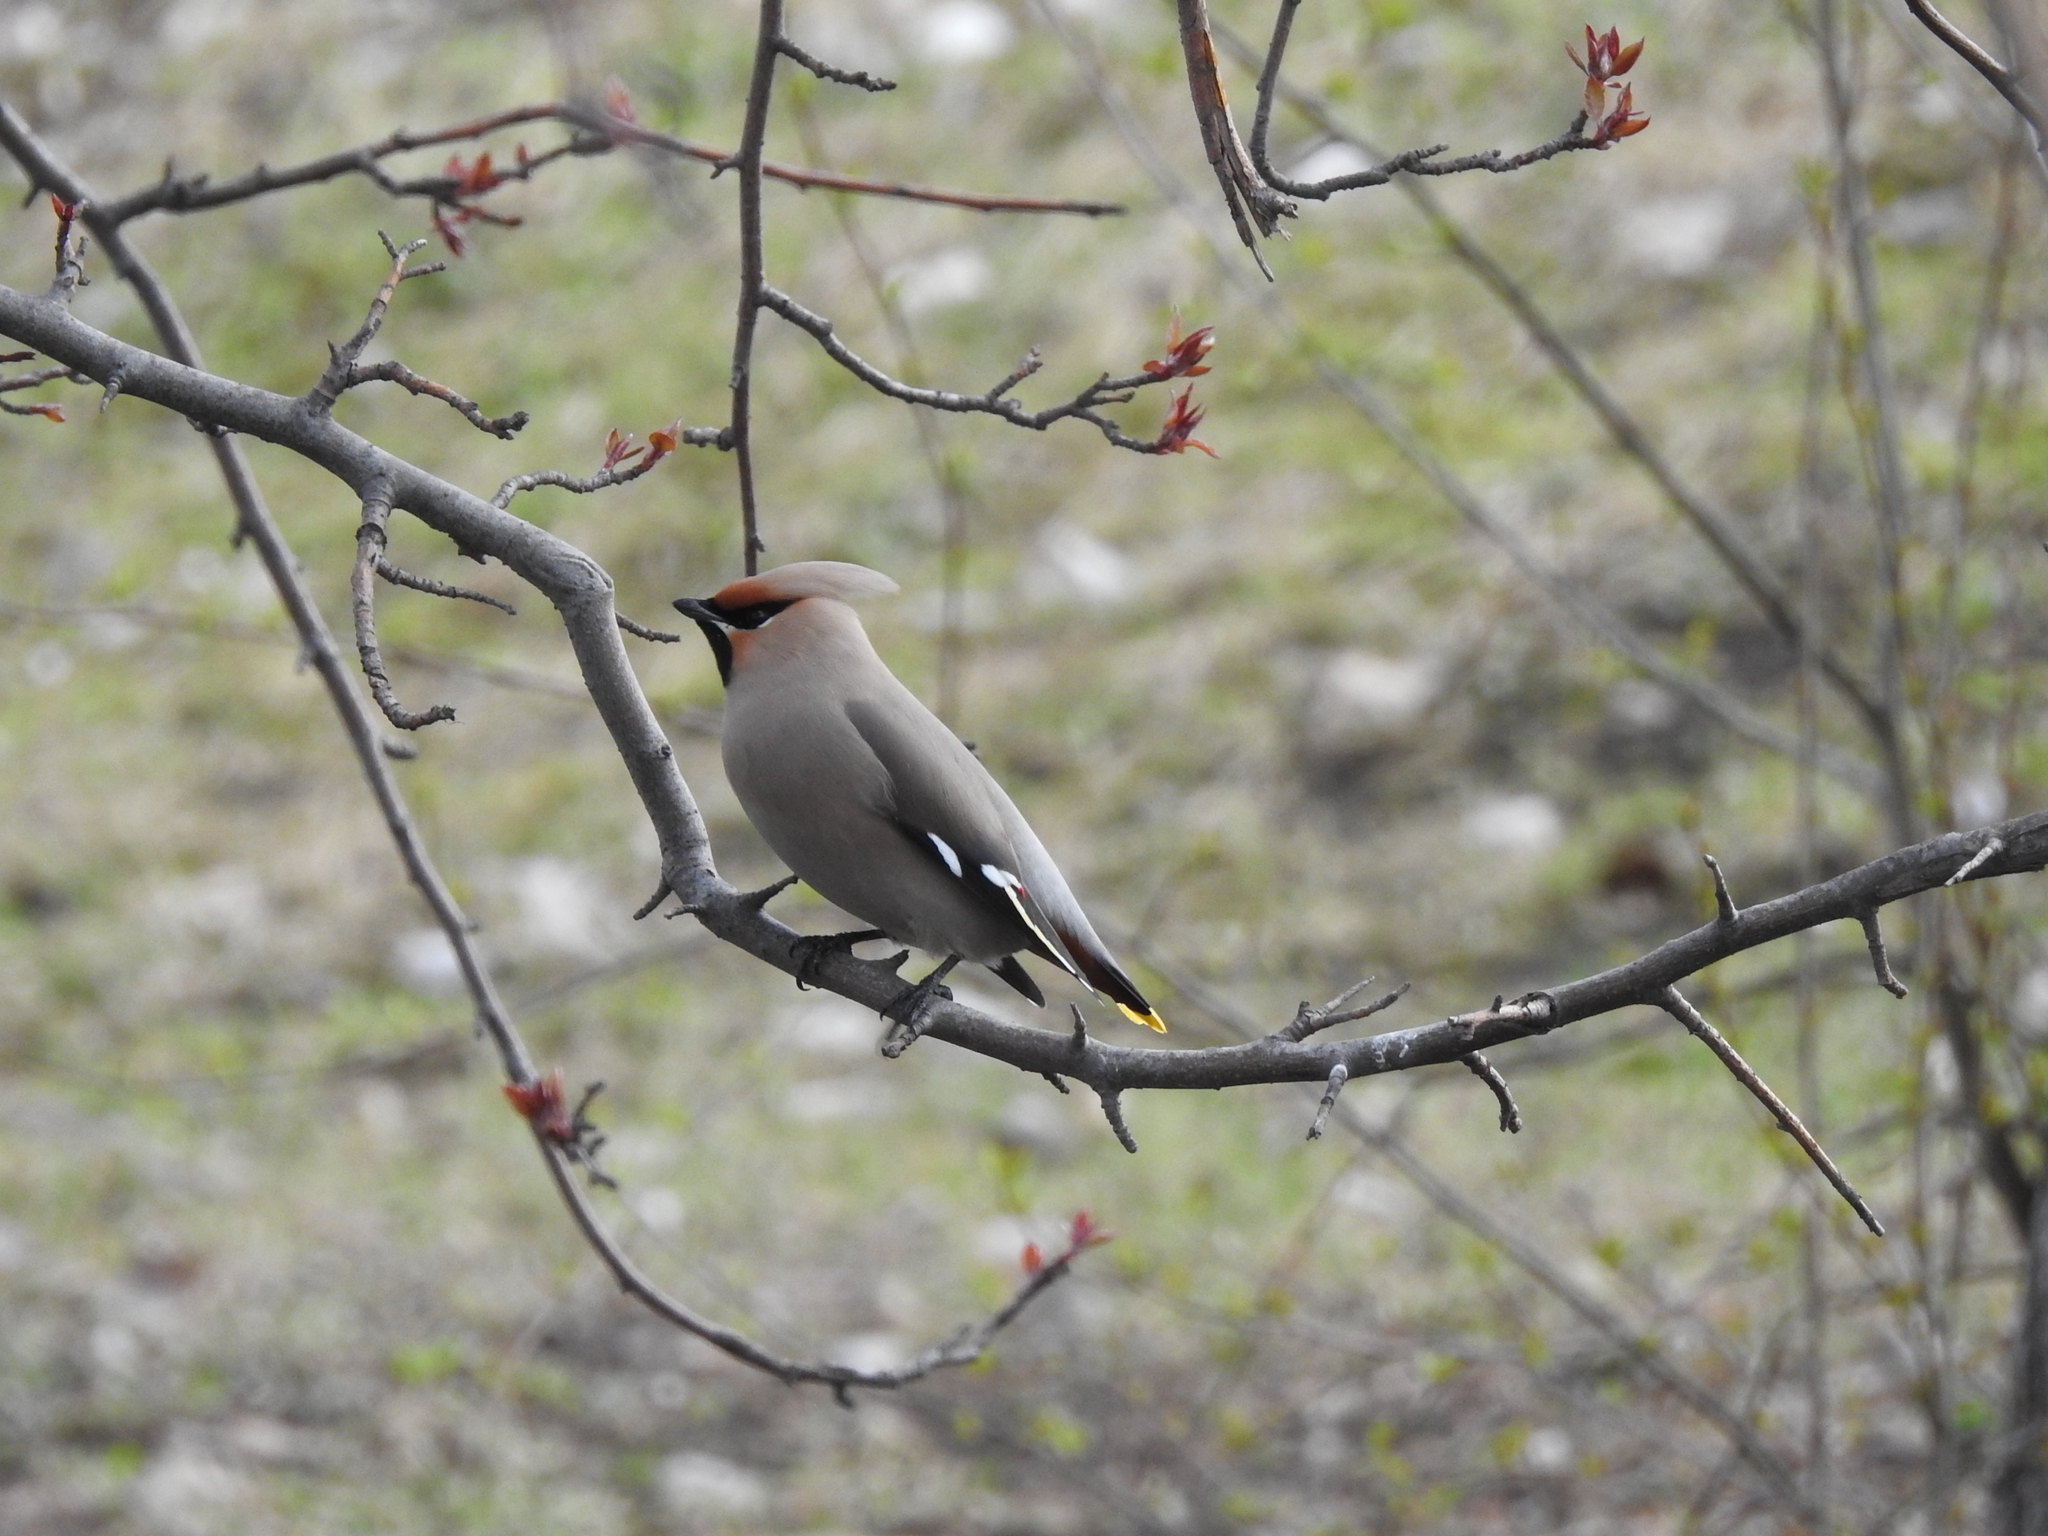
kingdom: Animalia
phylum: Chordata
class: Aves
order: Passeriformes
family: Bombycillidae
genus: Bombycilla
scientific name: Bombycilla garrulus
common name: Bohemian waxwing
